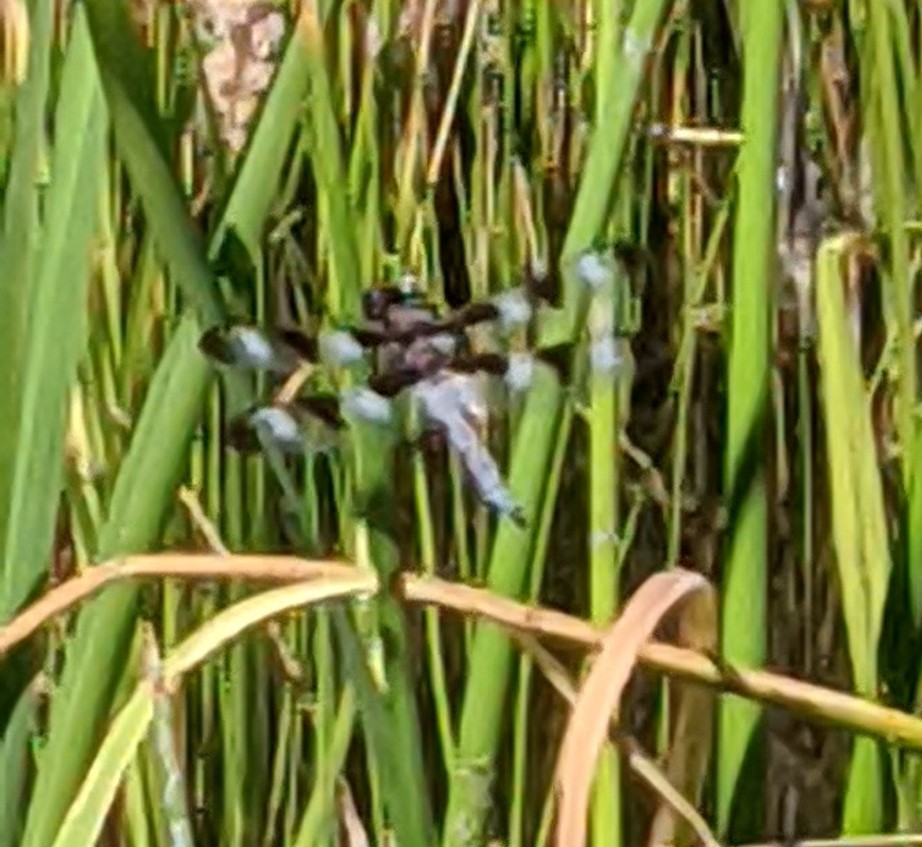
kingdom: Animalia
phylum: Arthropoda
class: Insecta
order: Odonata
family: Libellulidae
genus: Libellula
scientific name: Libellula pulchella
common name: Twelve-spotted skimmer
